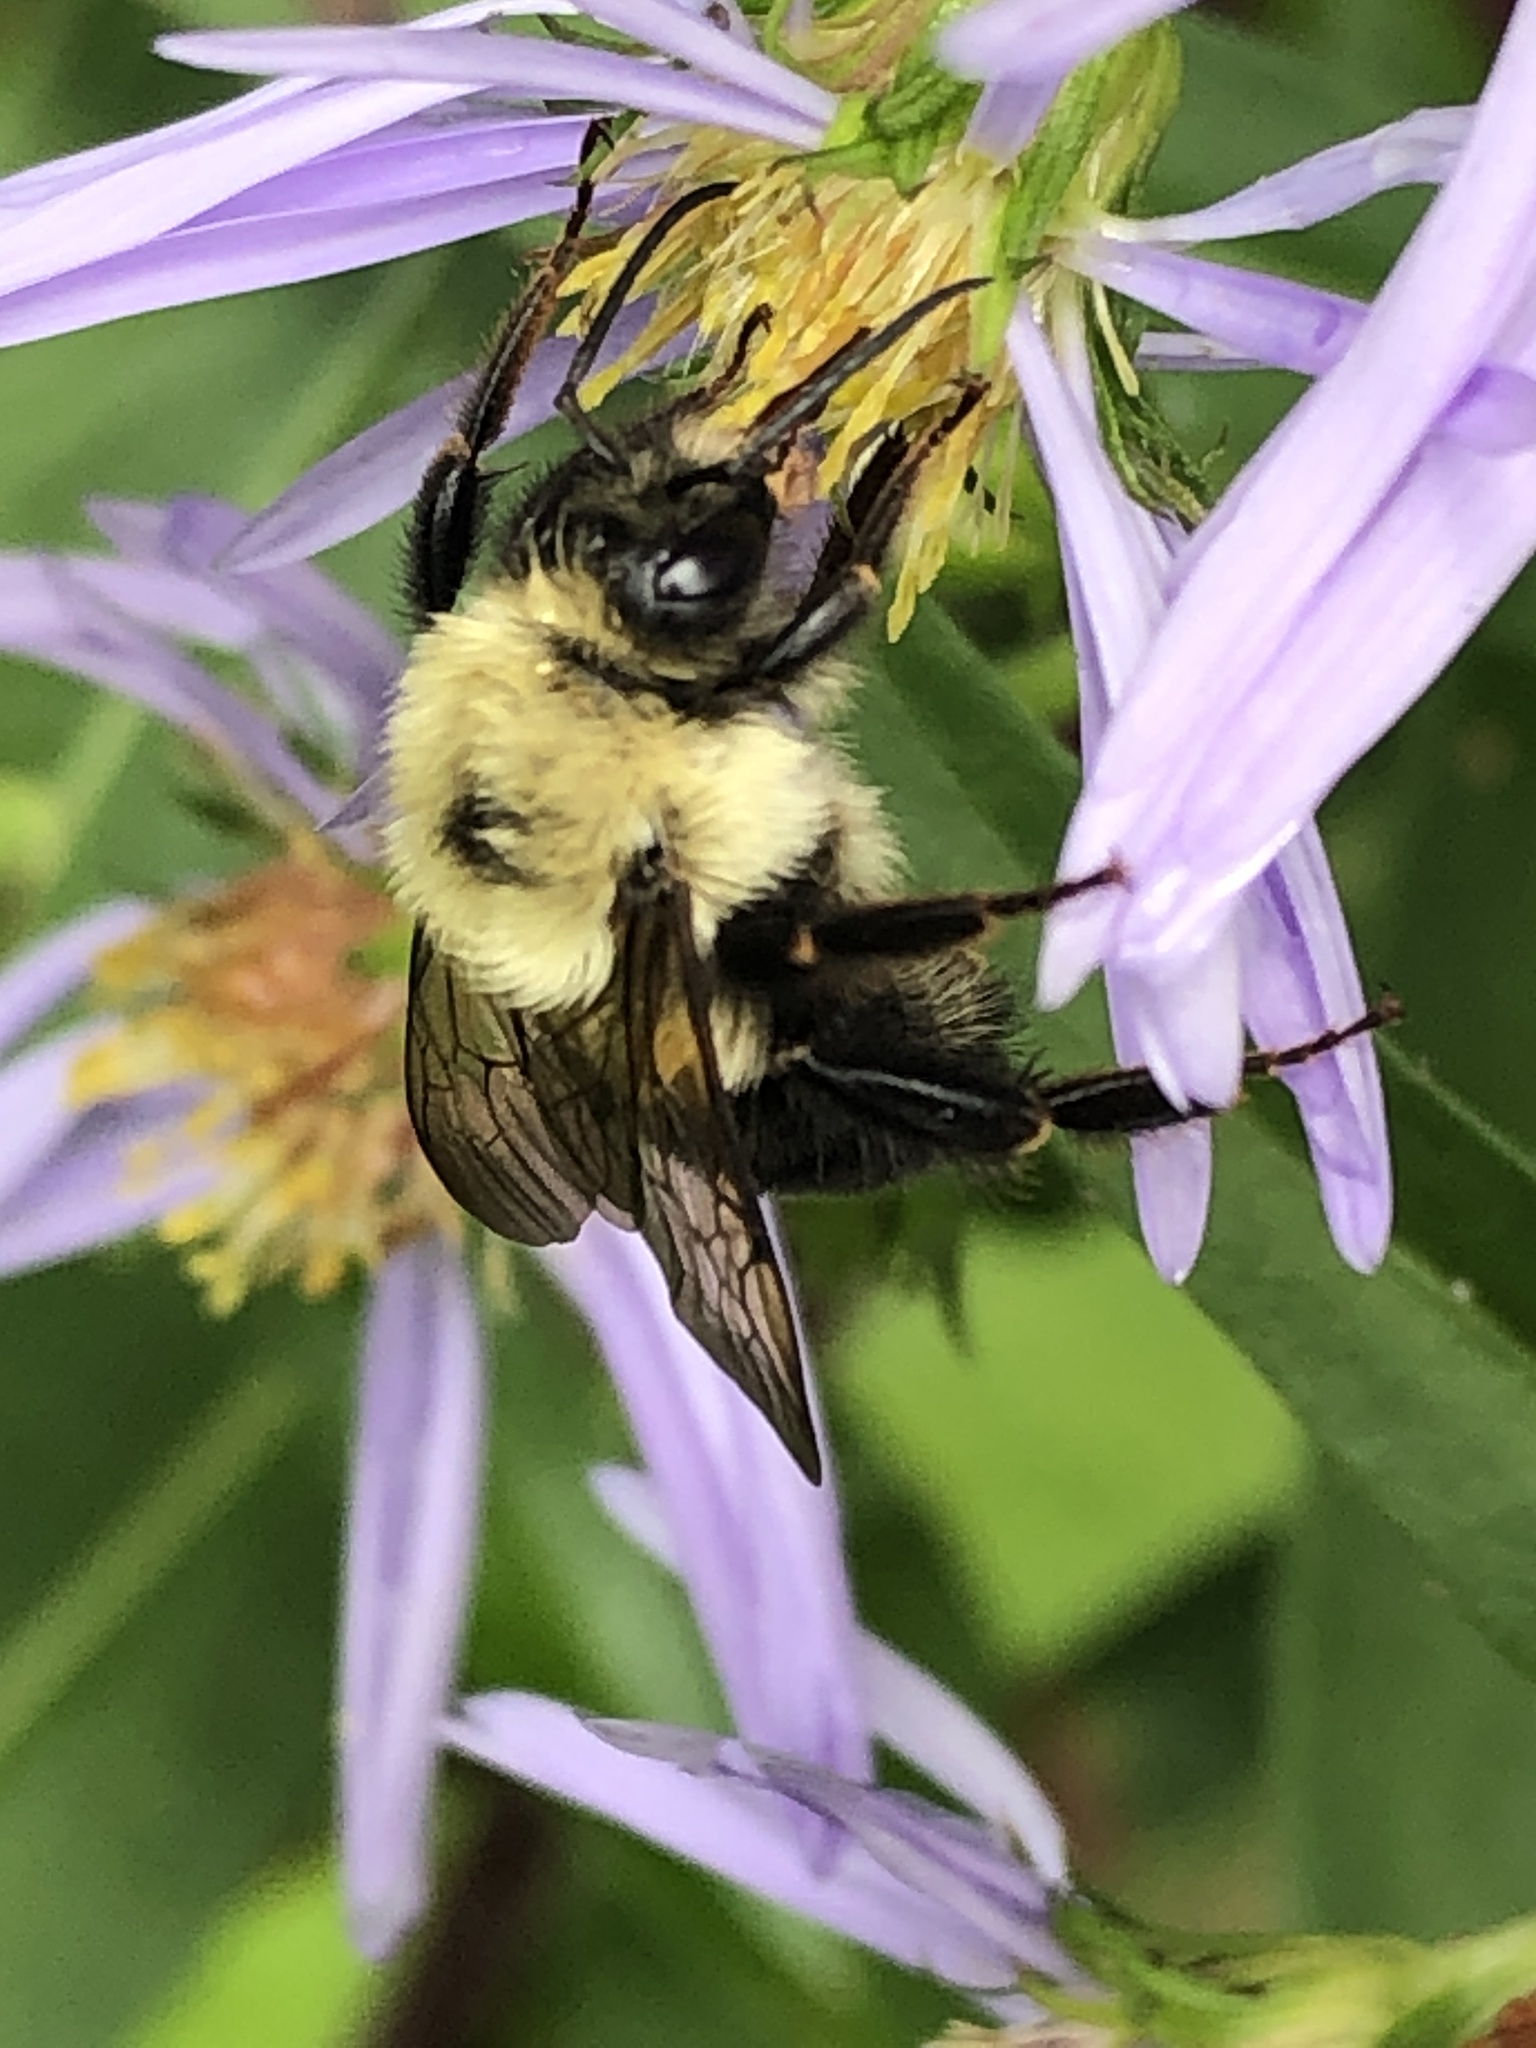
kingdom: Animalia
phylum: Arthropoda
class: Insecta
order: Hymenoptera
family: Apidae
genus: Bombus
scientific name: Bombus bimaculatus
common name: Two-spotted bumble bee
